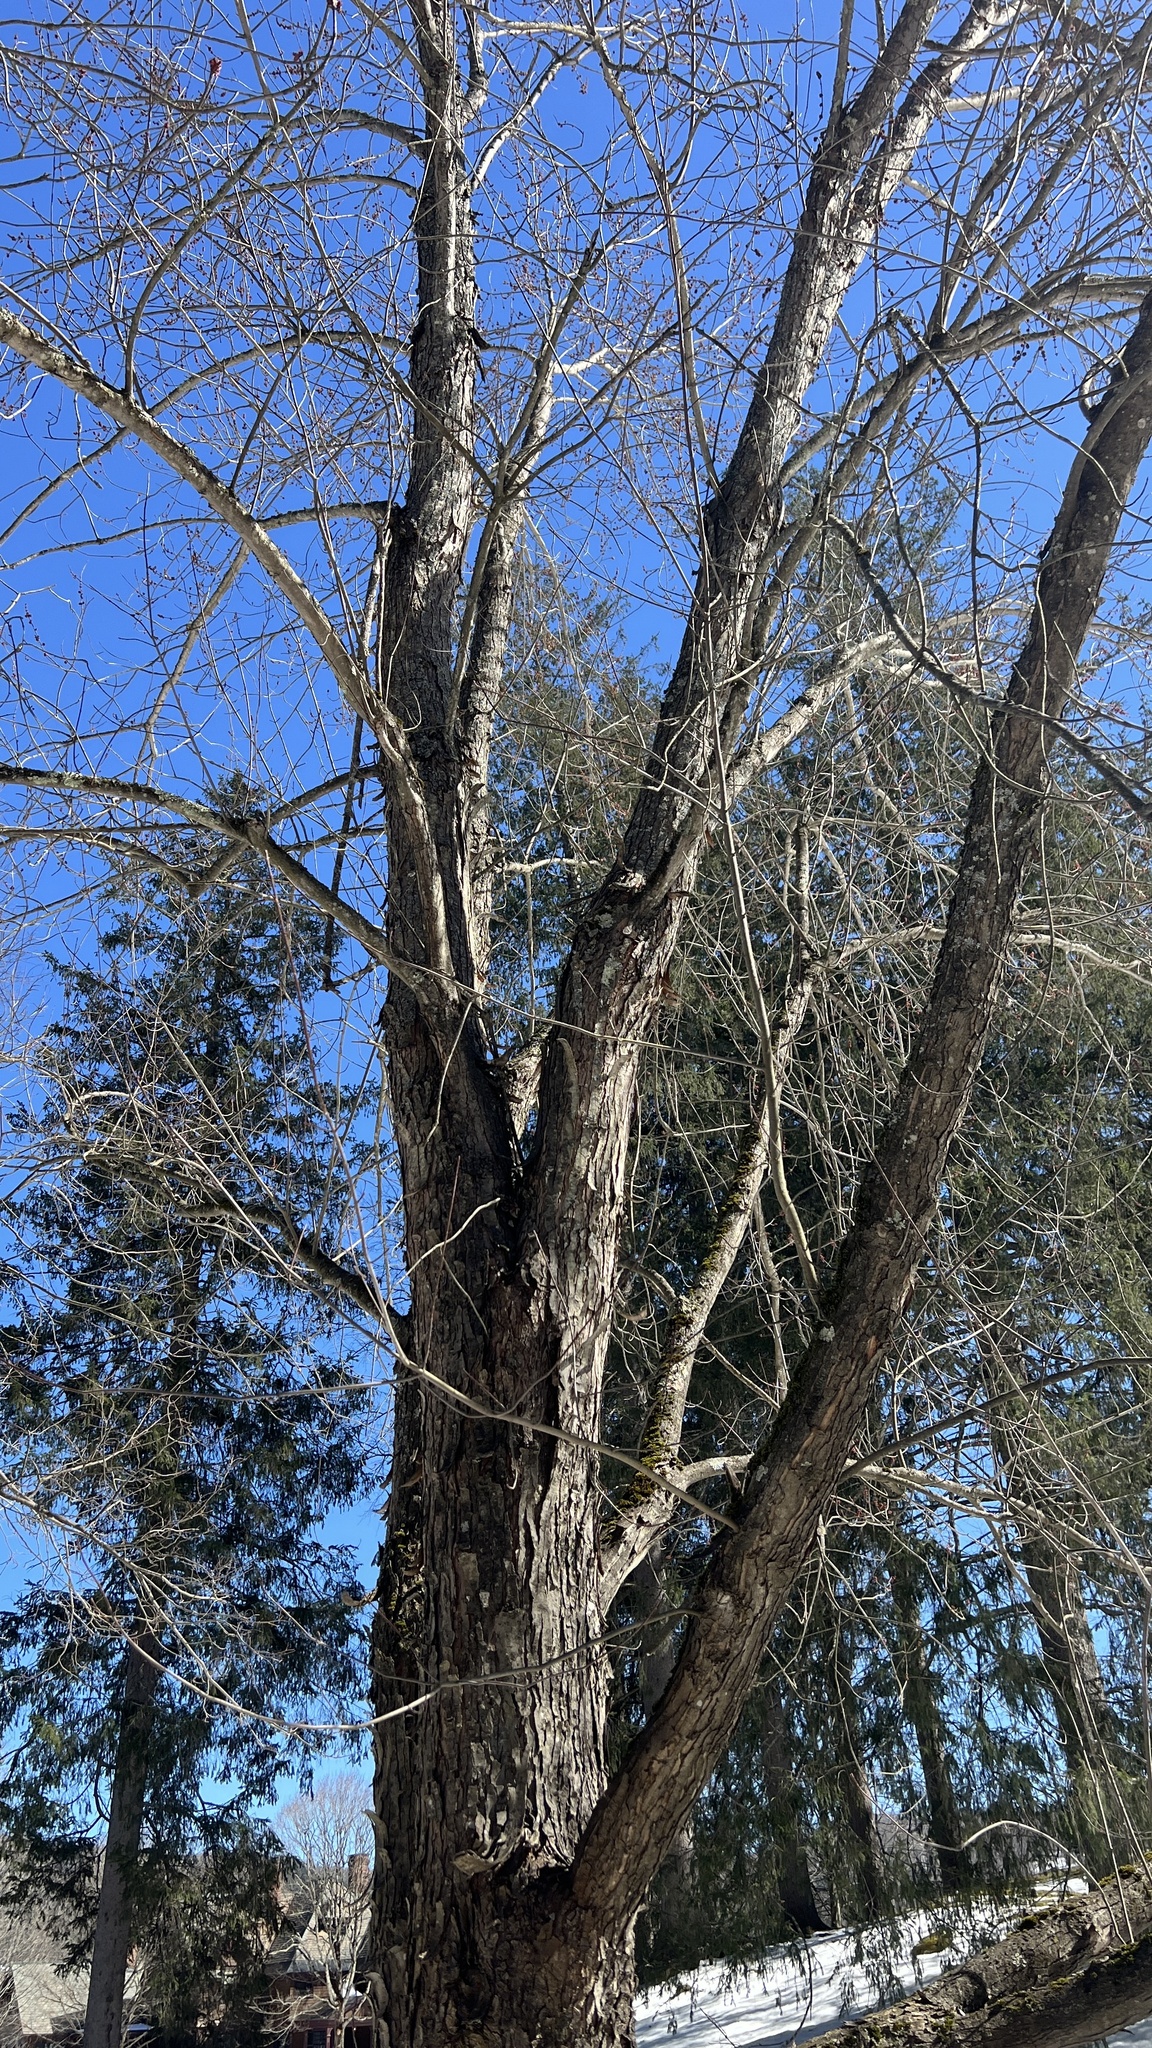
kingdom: Plantae
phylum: Tracheophyta
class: Magnoliopsida
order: Sapindales
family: Sapindaceae
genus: Acer
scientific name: Acer saccharinum
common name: Silver maple
